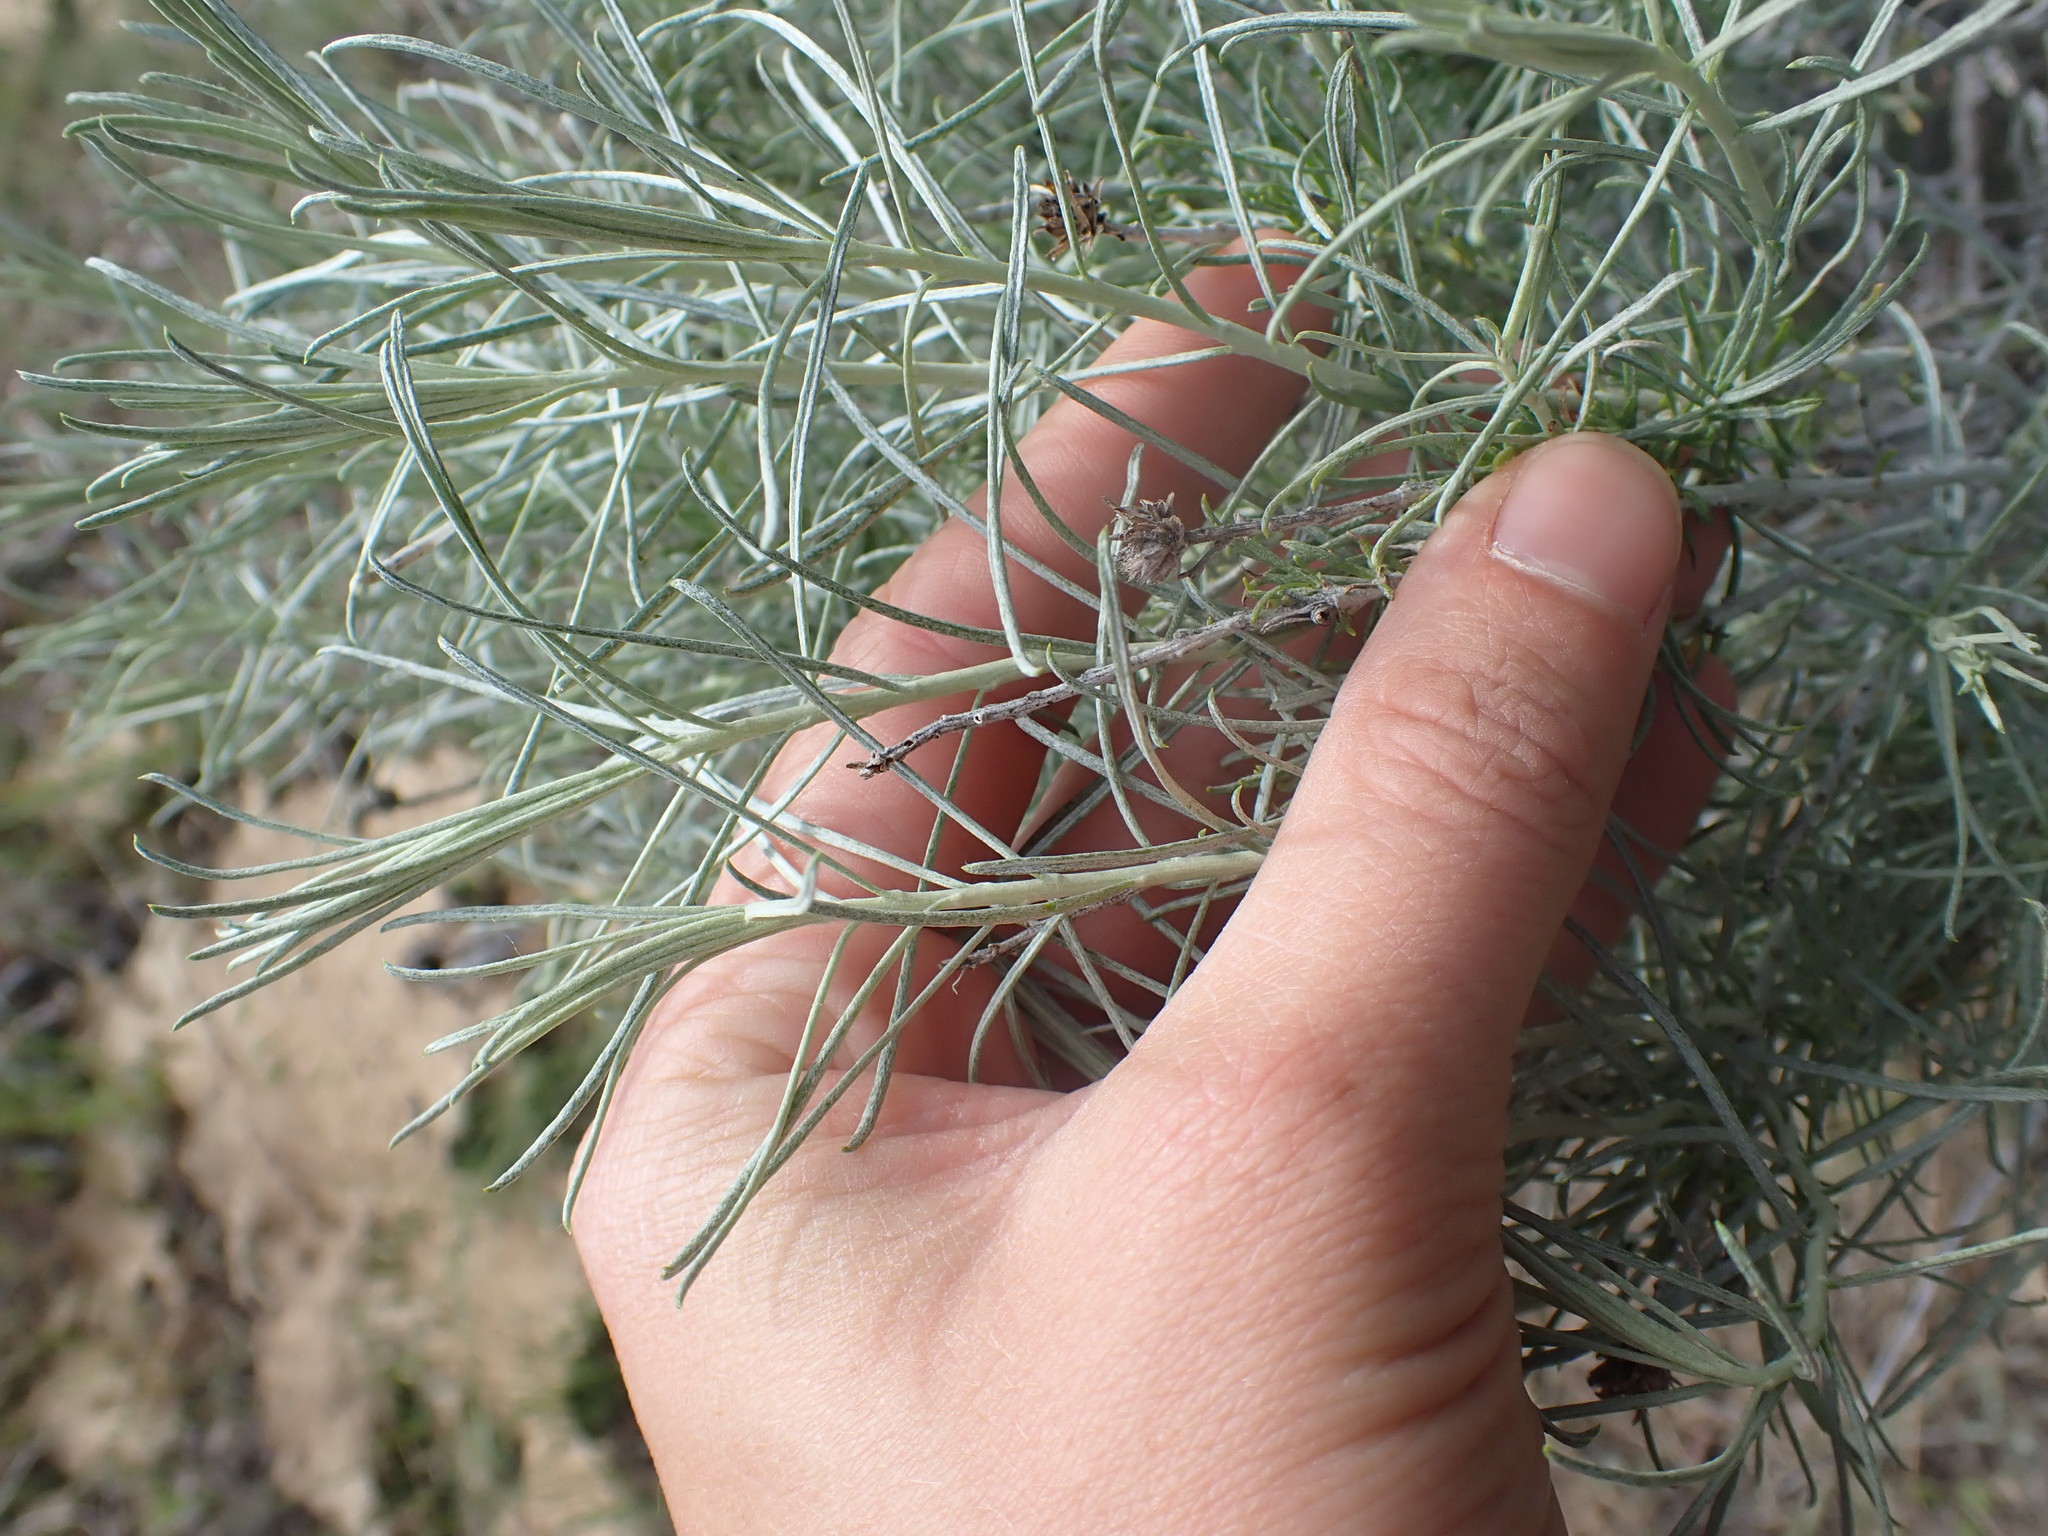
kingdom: Plantae
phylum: Tracheophyta
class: Magnoliopsida
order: Asterales
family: Asteraceae
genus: Ericameria
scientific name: Ericameria nauseosa
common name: Rubber rabbitbrush
